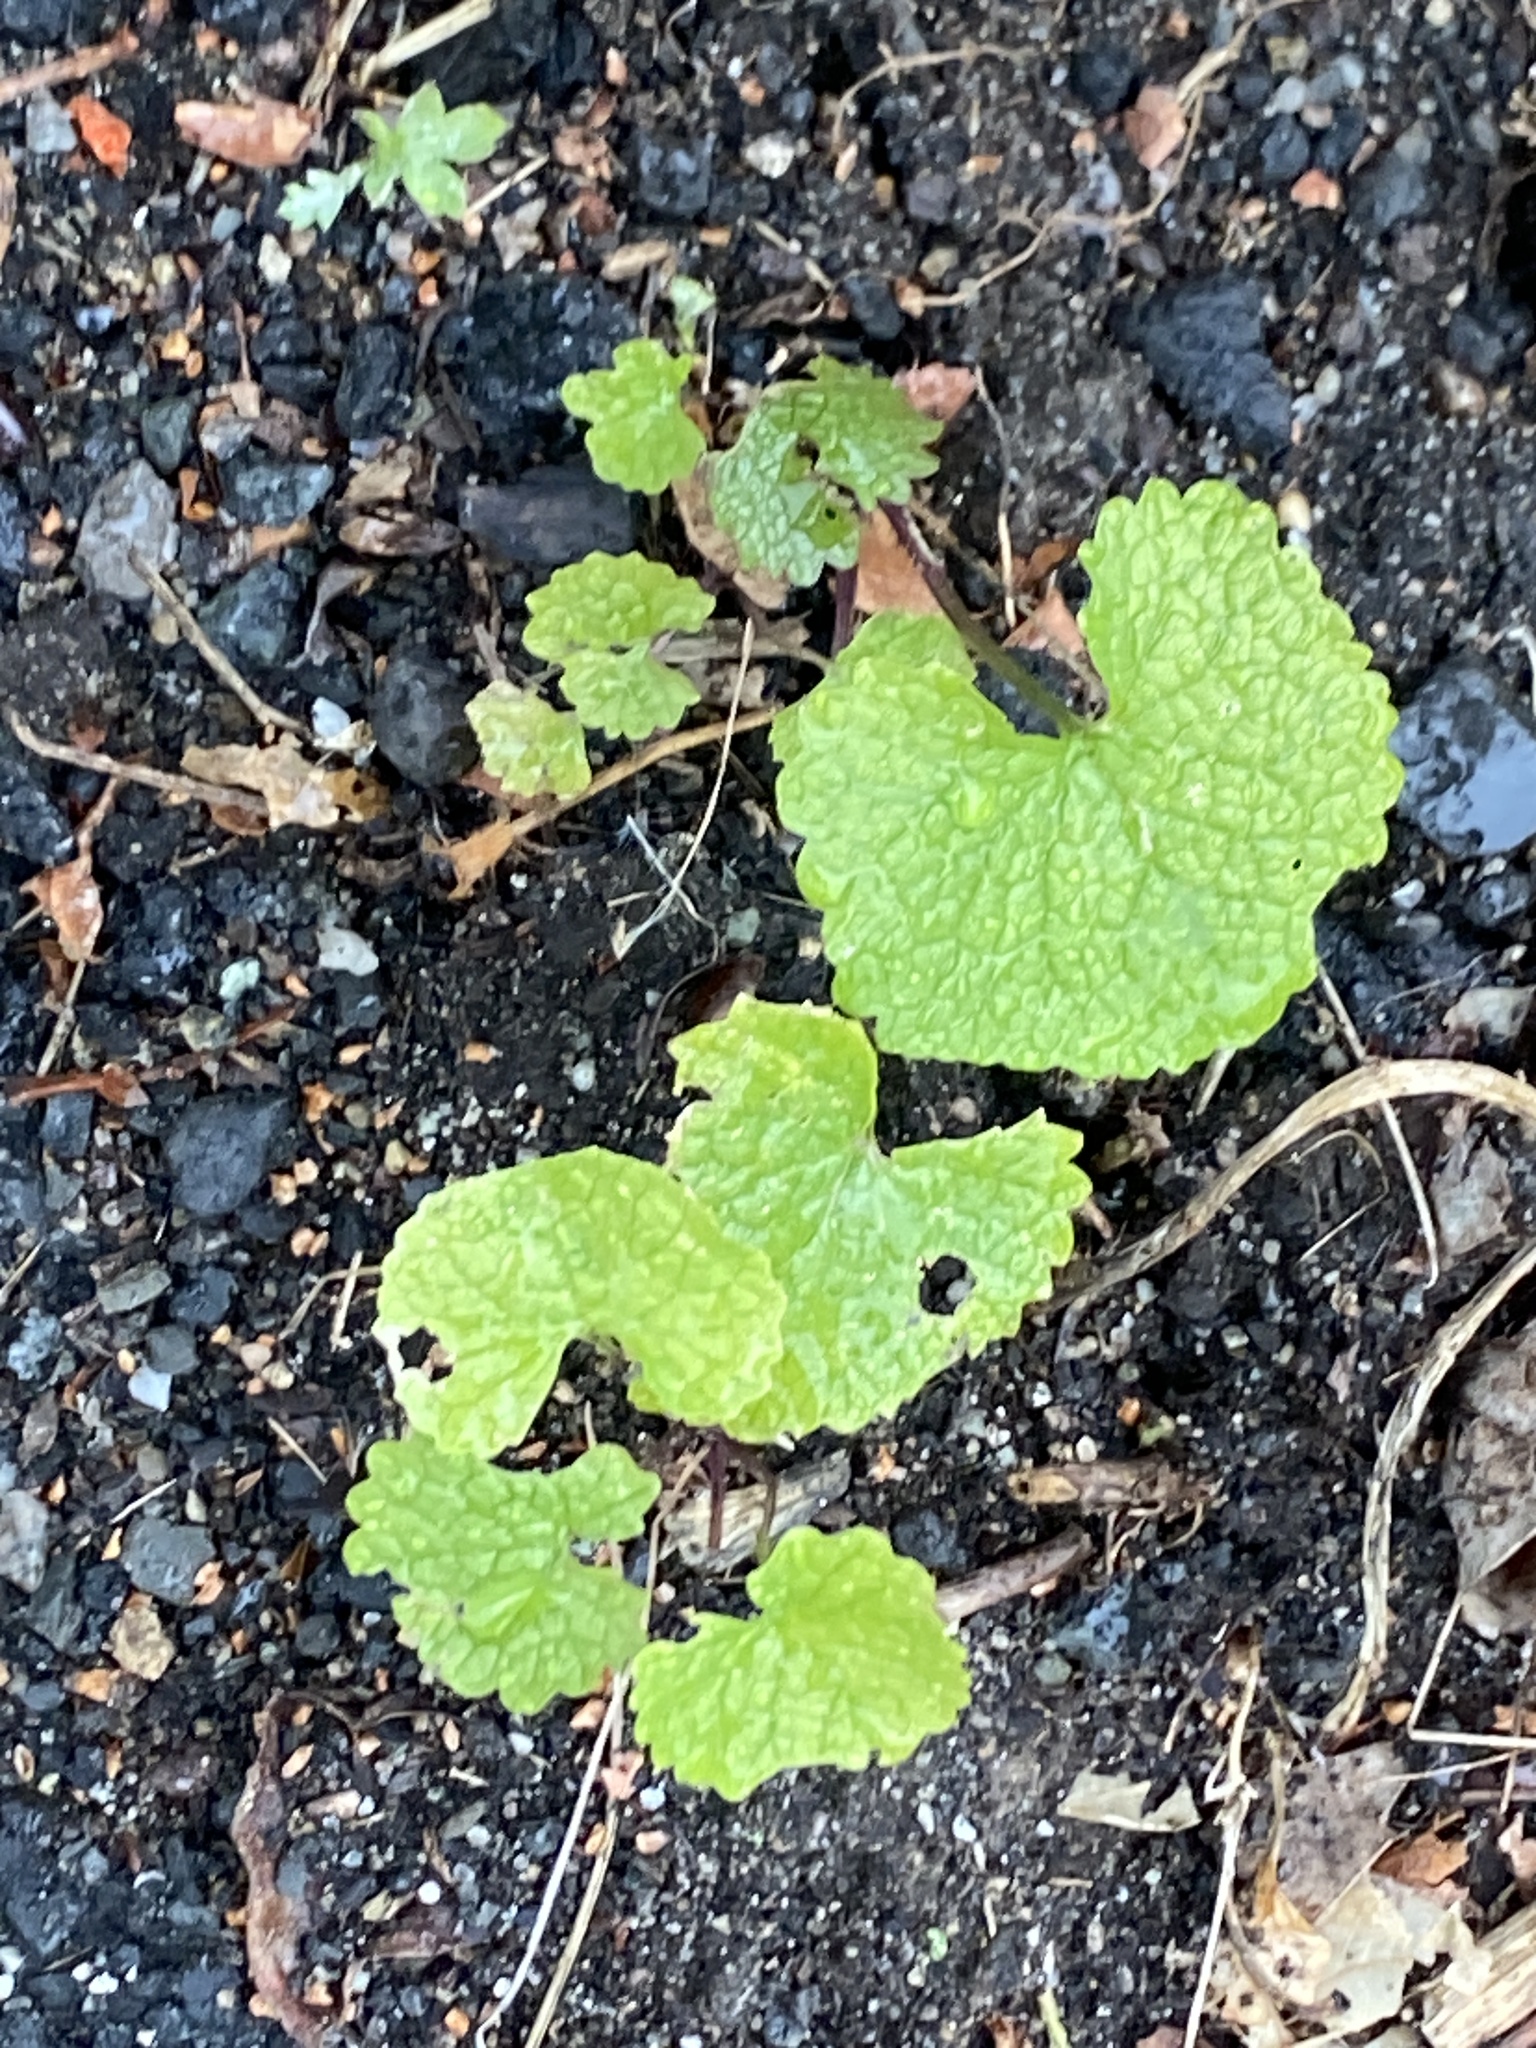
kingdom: Plantae
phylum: Tracheophyta
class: Magnoliopsida
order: Brassicales
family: Brassicaceae
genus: Alliaria
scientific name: Alliaria petiolata
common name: Garlic mustard
